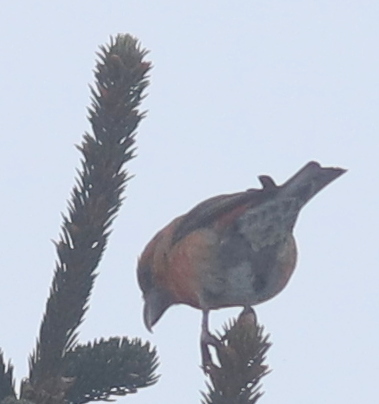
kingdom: Animalia
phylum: Chordata
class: Aves
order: Passeriformes
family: Fringillidae
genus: Loxia
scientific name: Loxia curvirostra
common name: Red crossbill
